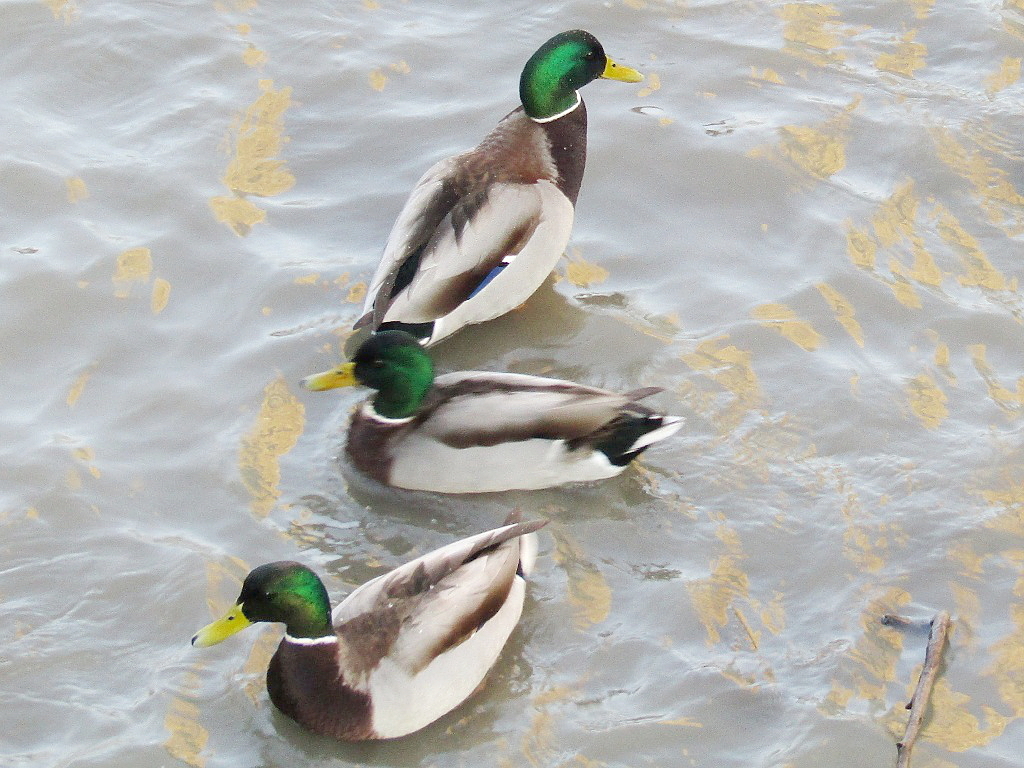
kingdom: Animalia
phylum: Chordata
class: Aves
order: Anseriformes
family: Anatidae
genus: Anas
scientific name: Anas platyrhynchos
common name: Mallard
